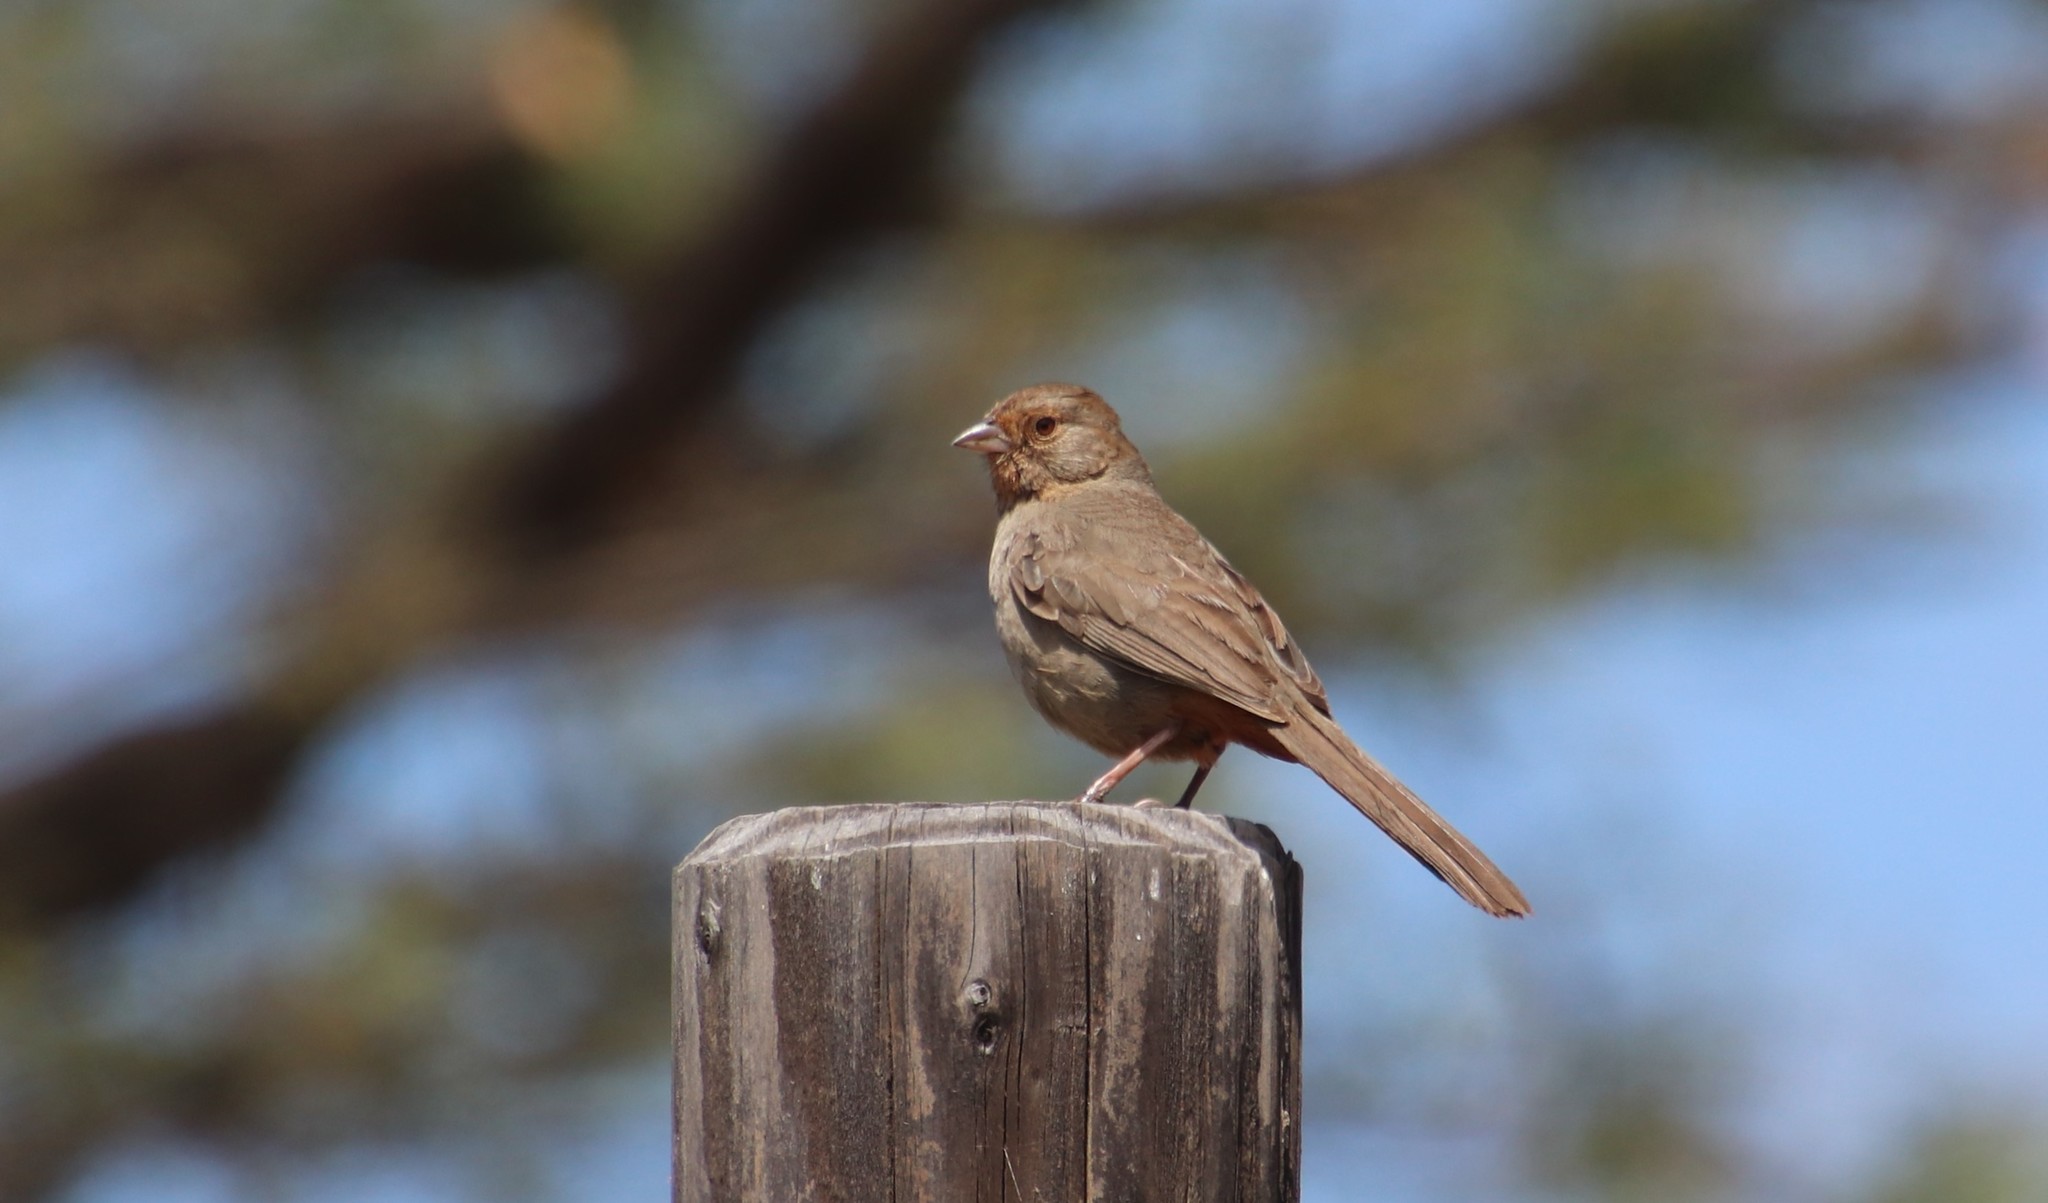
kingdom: Animalia
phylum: Chordata
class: Aves
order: Passeriformes
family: Passerellidae
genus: Melozone
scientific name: Melozone crissalis
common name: California towhee
